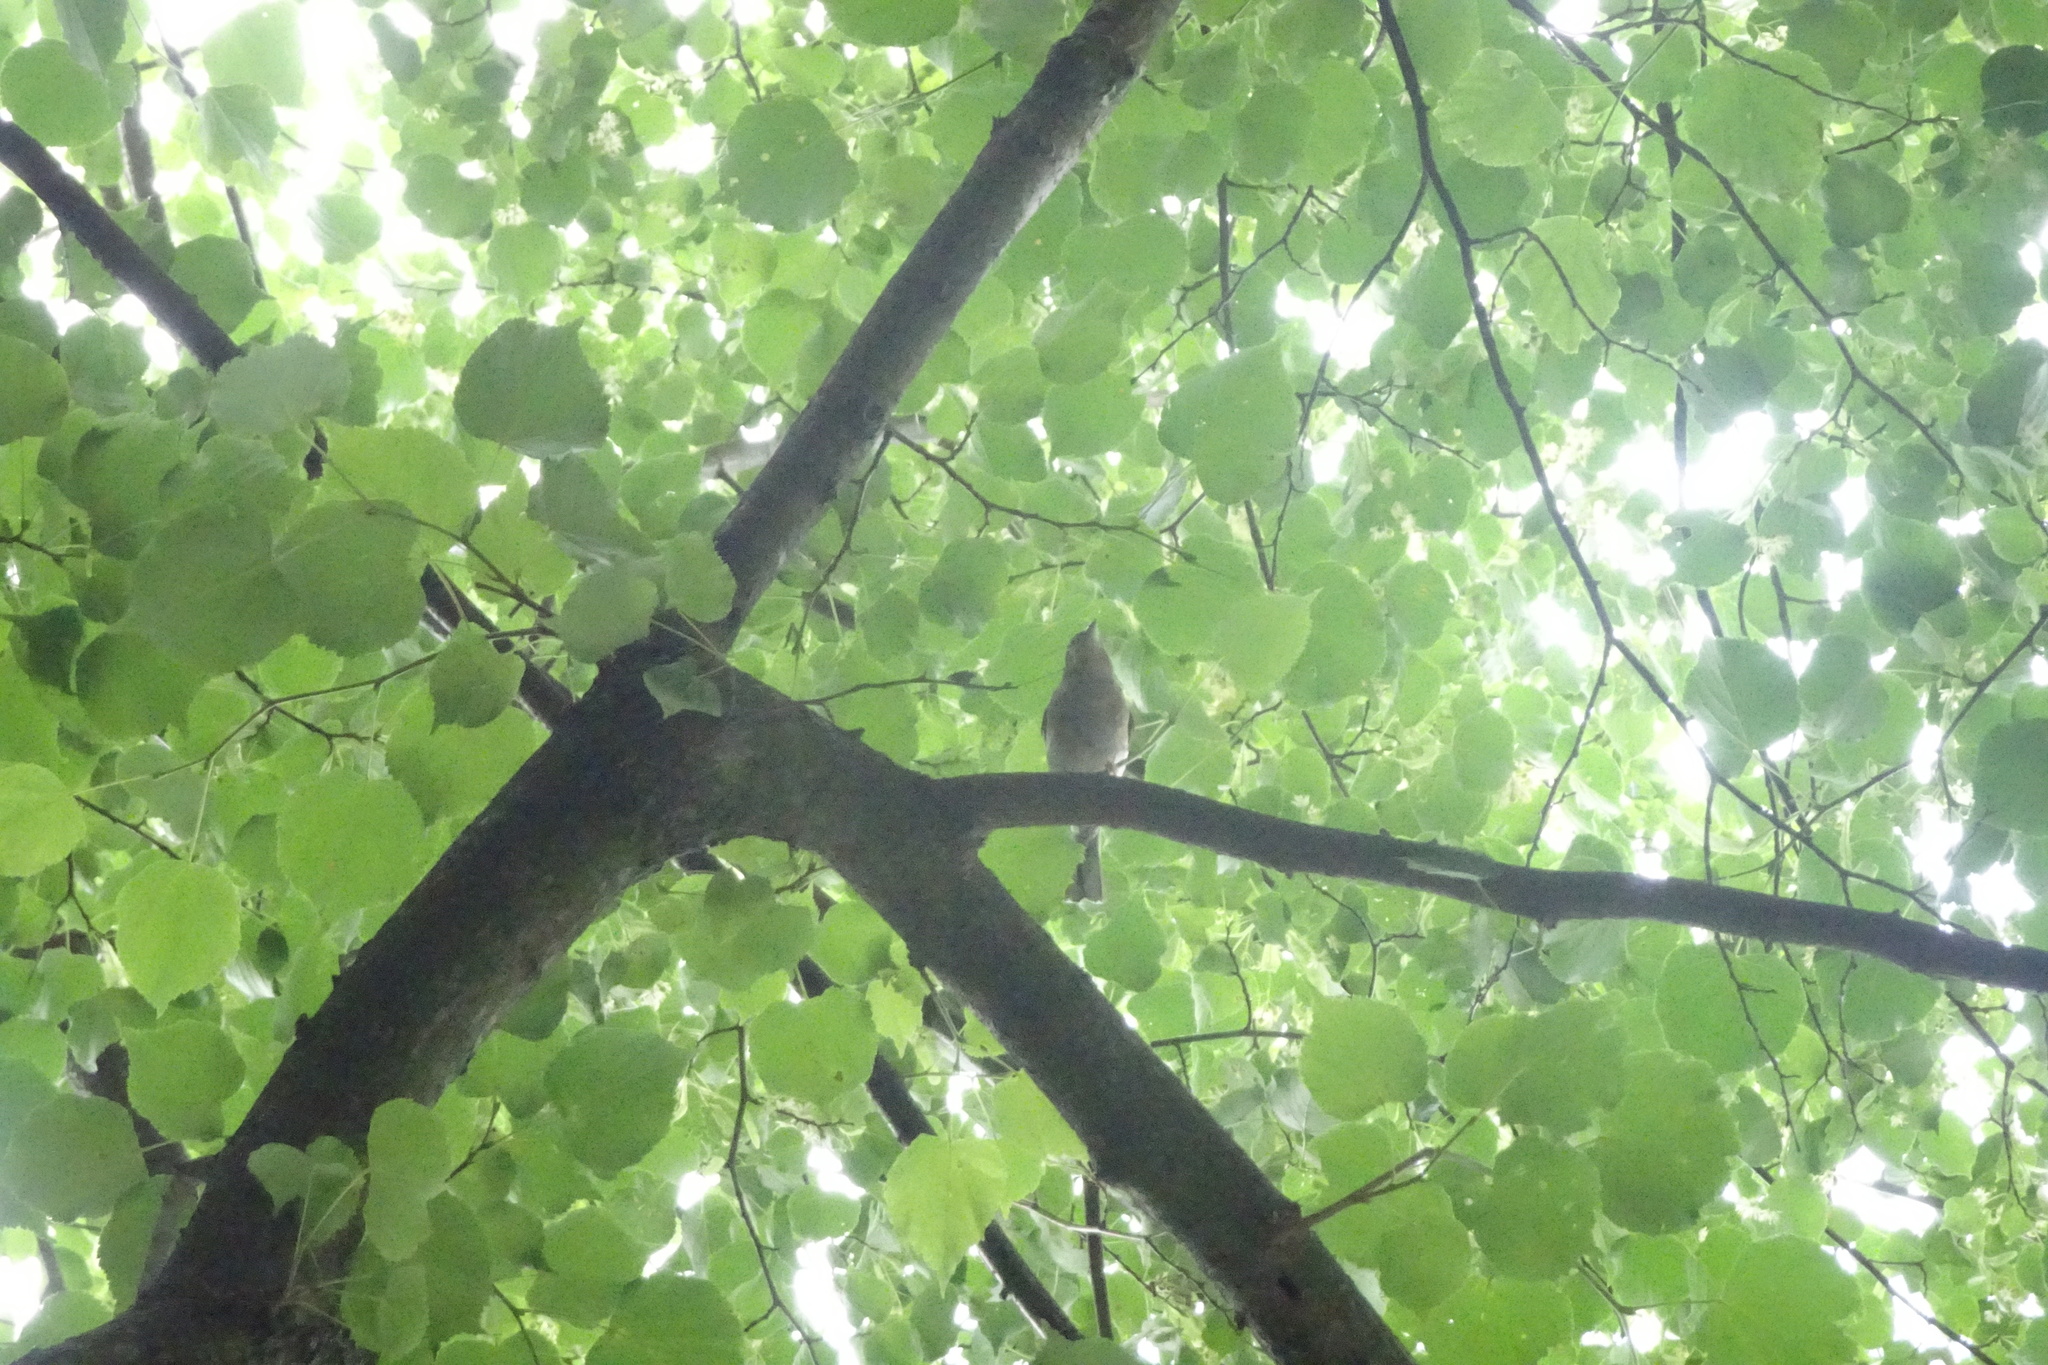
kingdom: Animalia
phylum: Chordata
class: Aves
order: Passeriformes
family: Fringillidae
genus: Fringilla
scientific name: Fringilla coelebs
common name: Common chaffinch
